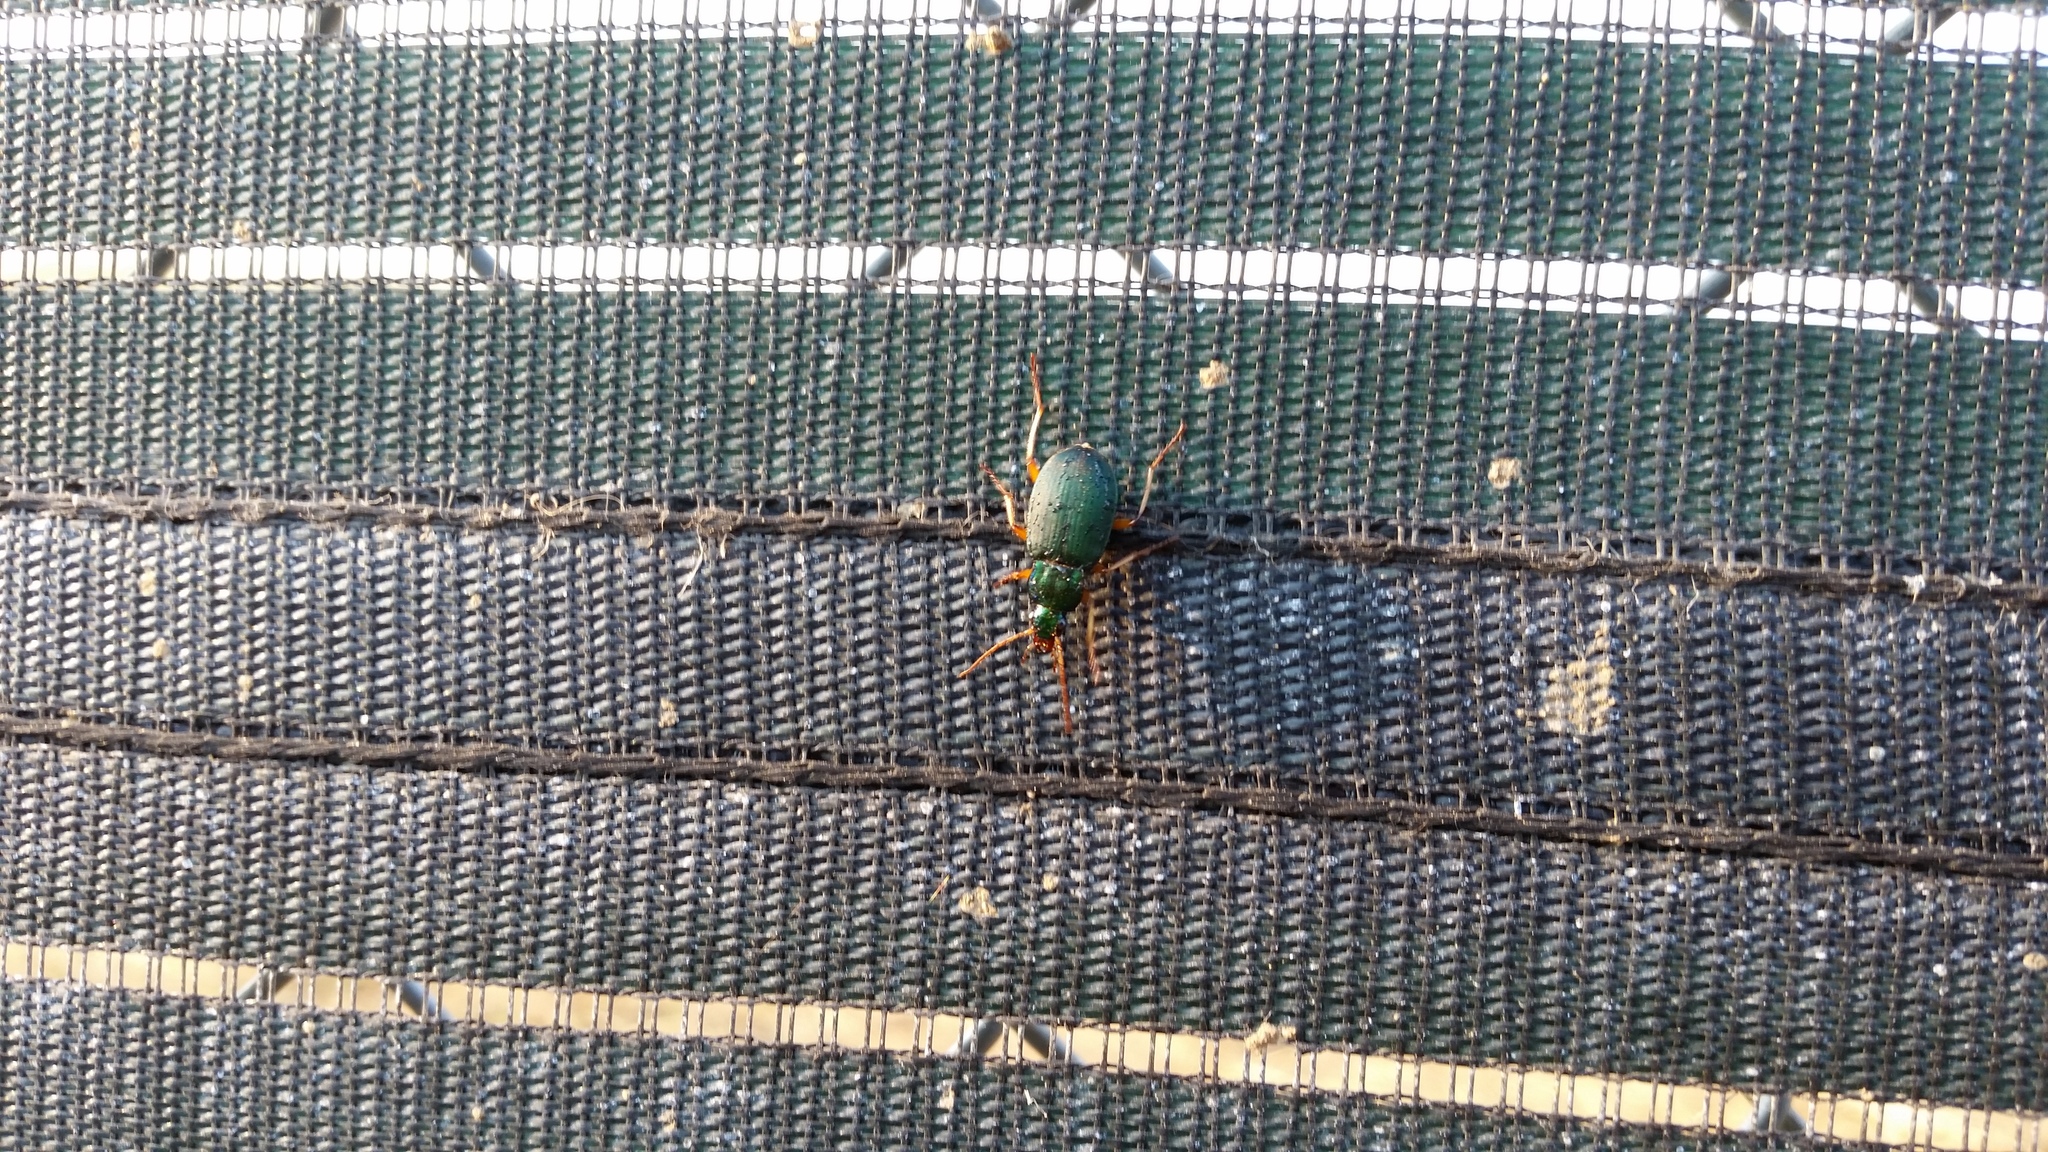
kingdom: Animalia
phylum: Arthropoda
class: Insecta
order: Coleoptera
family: Carabidae
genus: Chlaenius
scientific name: Chlaenius sericeus
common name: Green pubescent ground beetle
